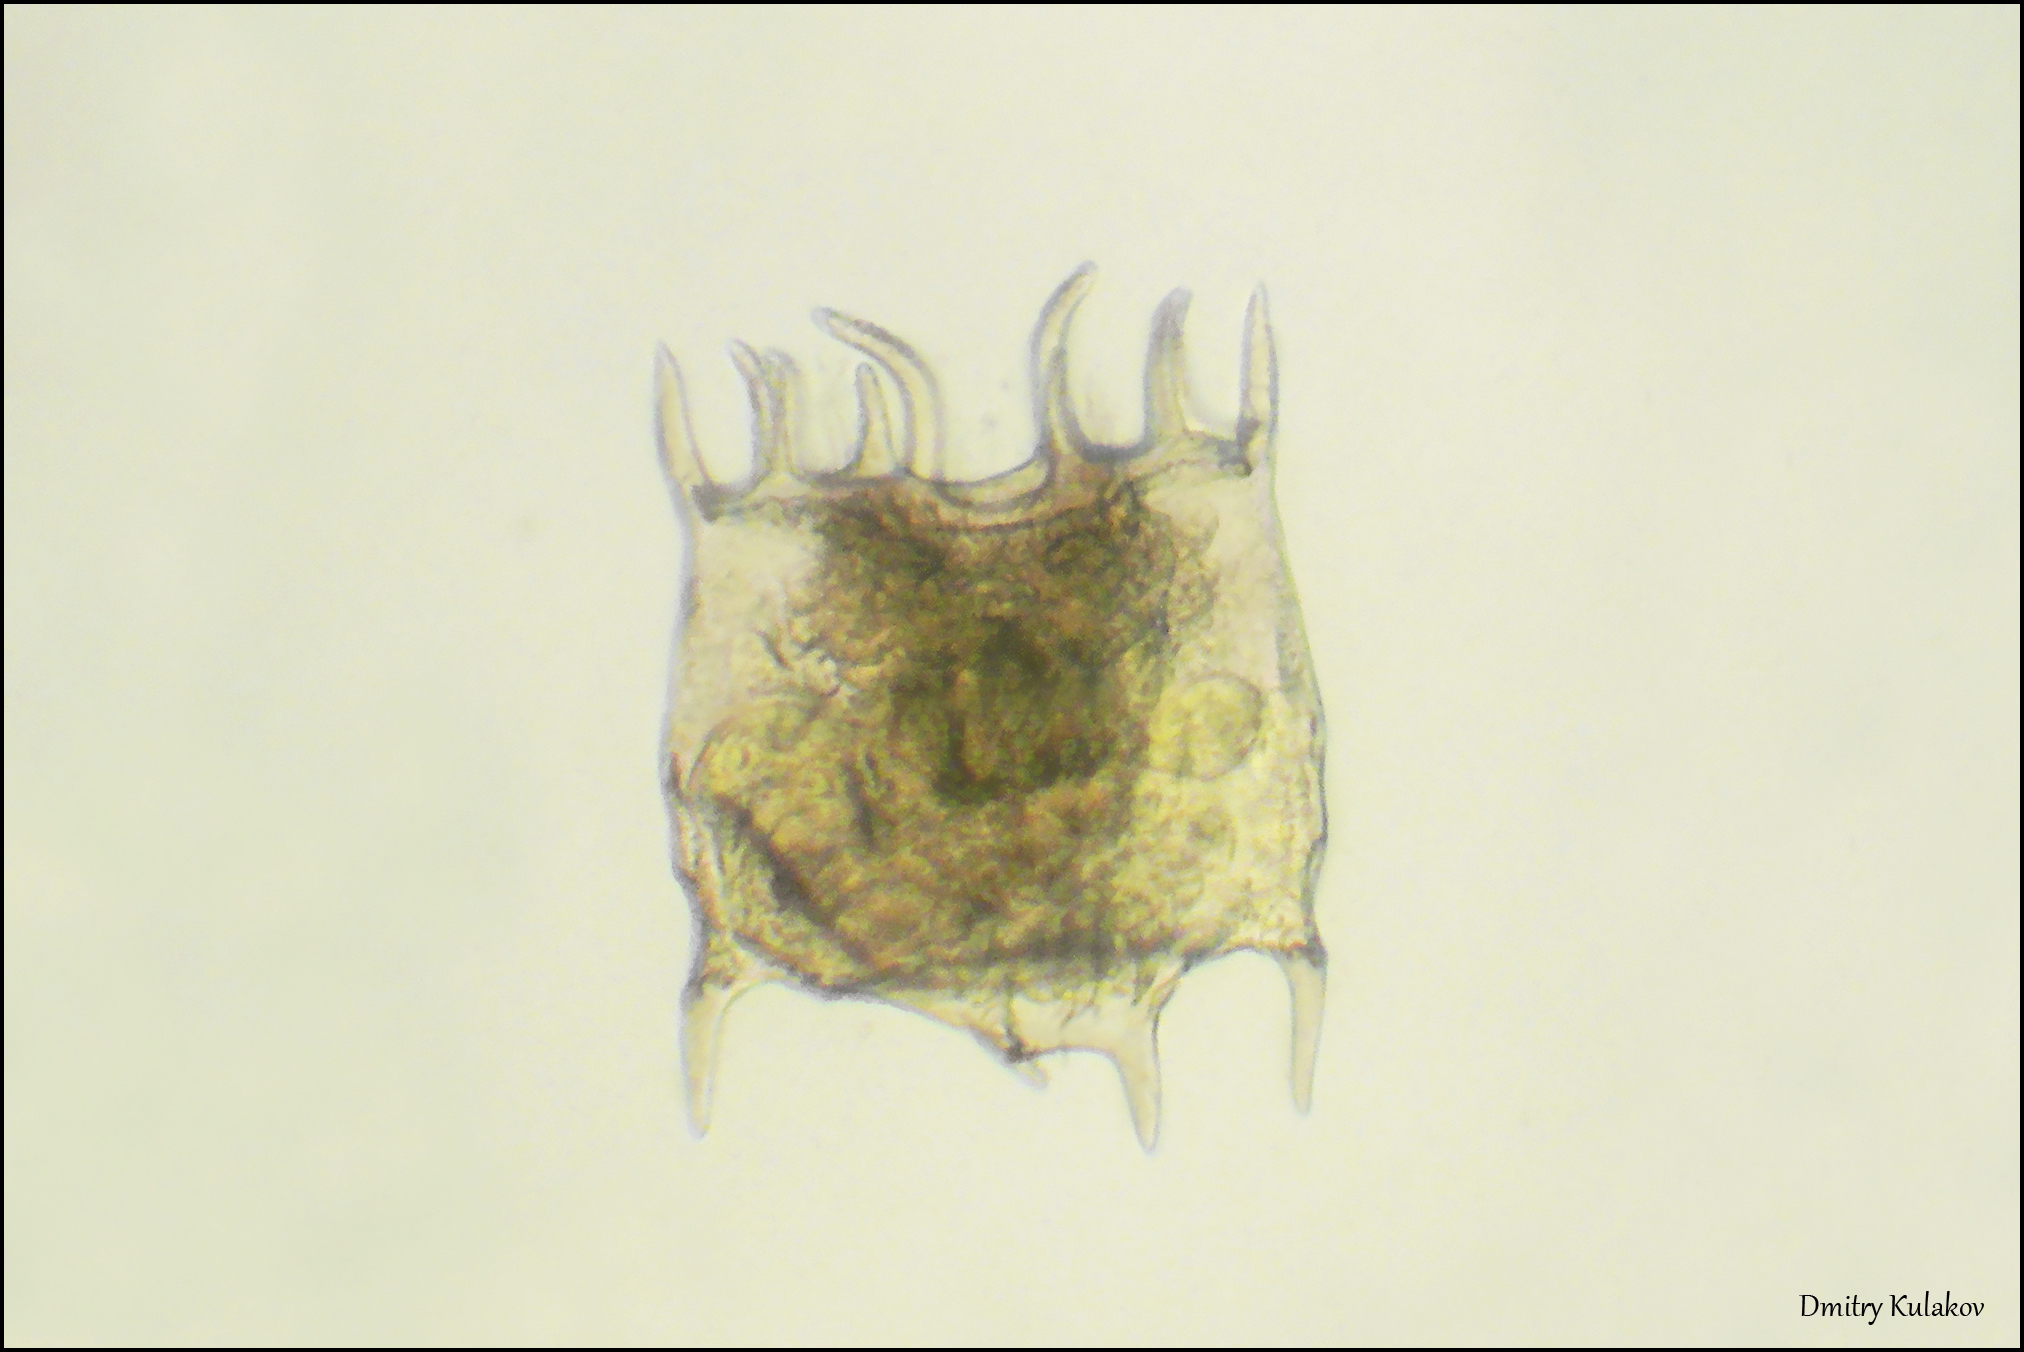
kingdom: Animalia
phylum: Rotifera
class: Eurotatoria
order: Ploima
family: Brachionidae
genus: Plationus
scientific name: Plationus patulus
